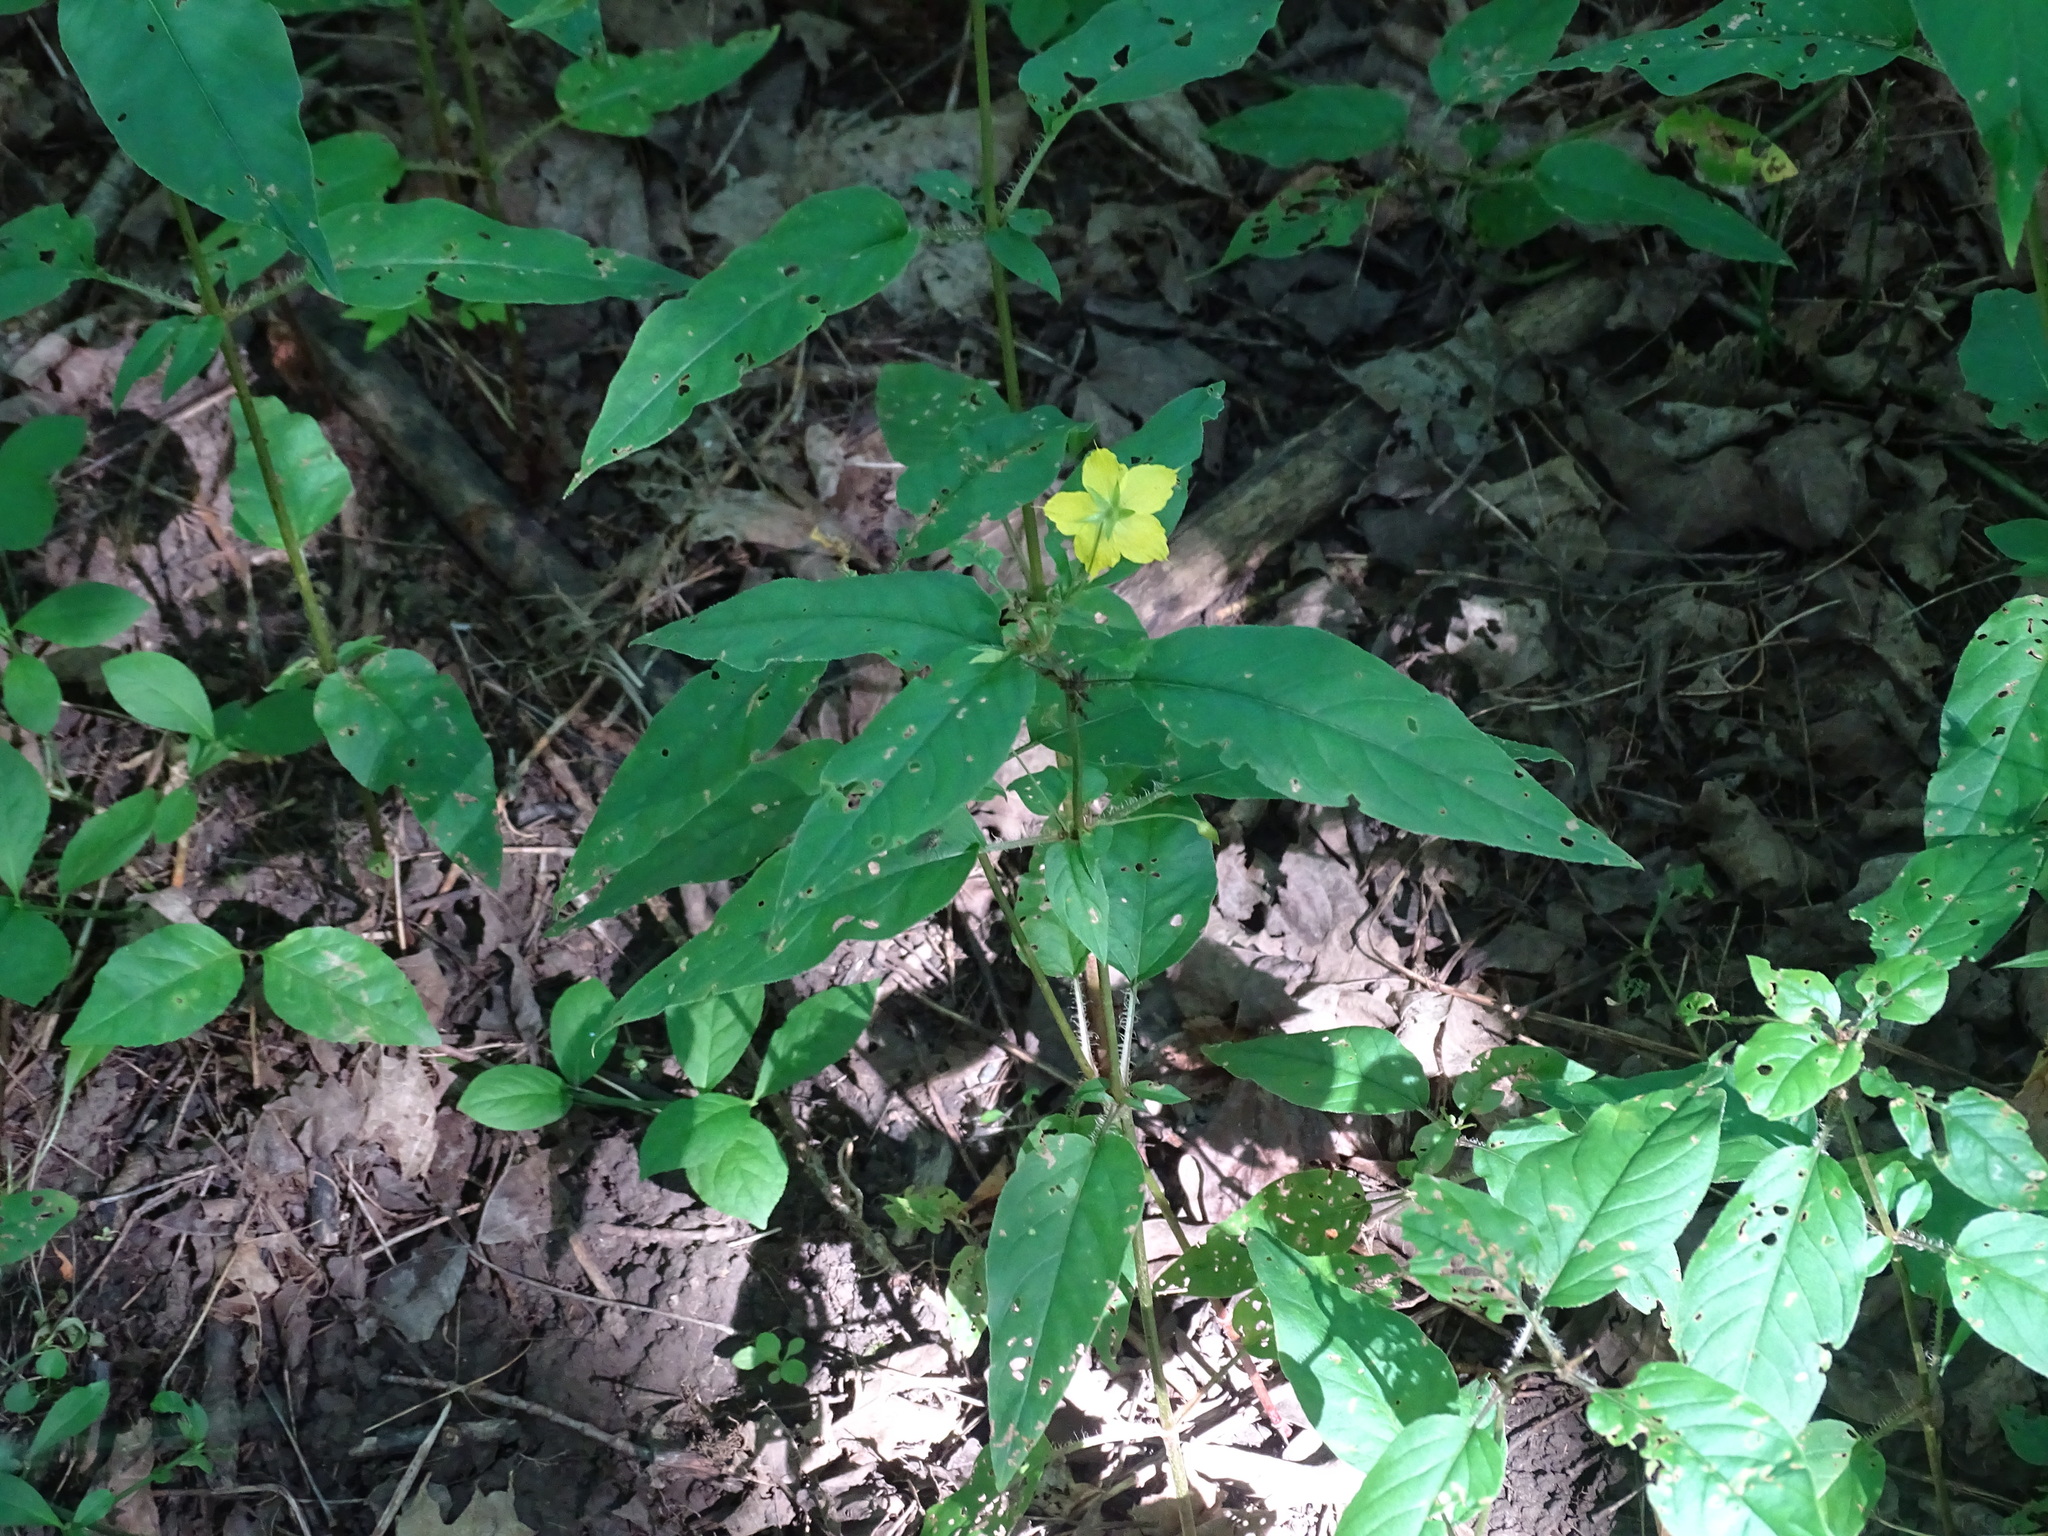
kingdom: Plantae
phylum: Tracheophyta
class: Magnoliopsida
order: Ericales
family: Primulaceae
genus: Lysimachia
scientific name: Lysimachia ciliata
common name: Fringed loosestrife
